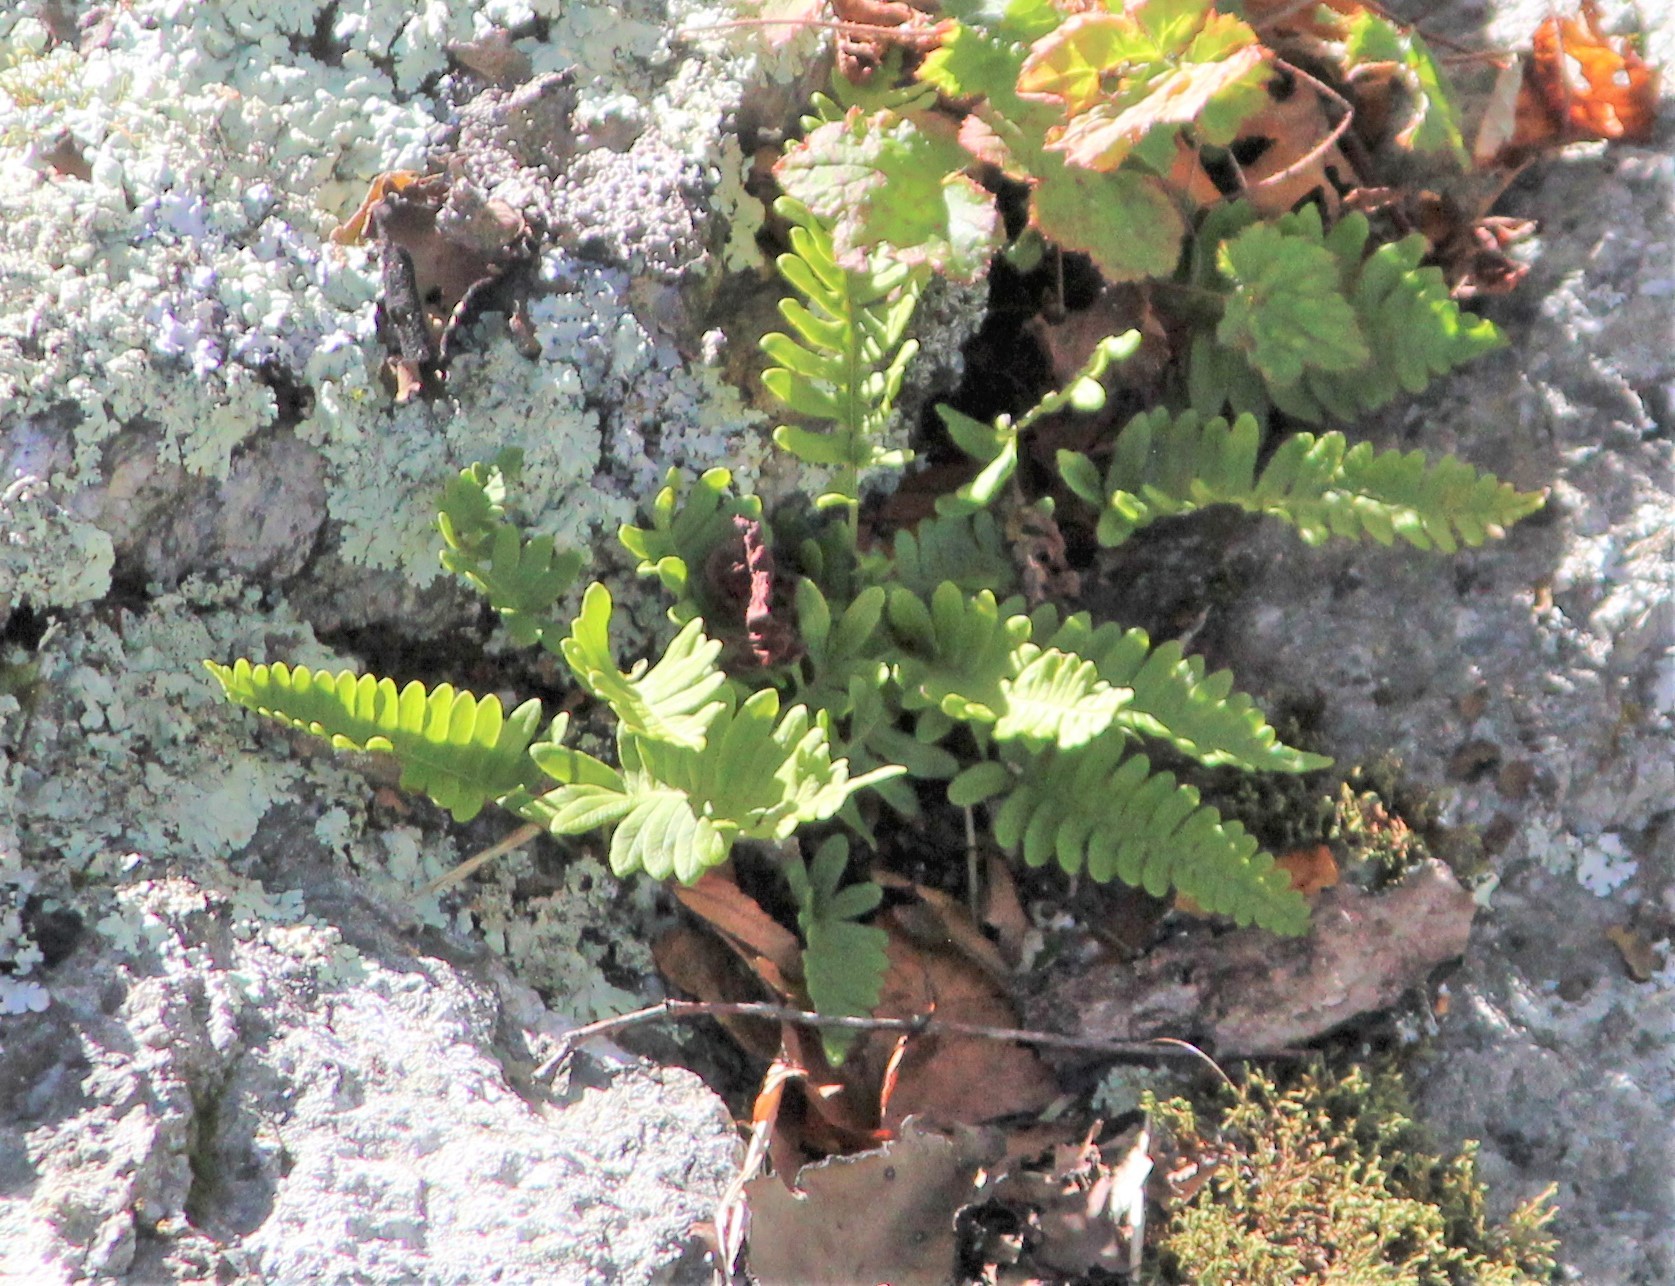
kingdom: Plantae
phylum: Tracheophyta
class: Polypodiopsida
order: Polypodiales
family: Polypodiaceae
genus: Polypodium
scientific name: Polypodium appalachianum
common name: Appalachian polypody
